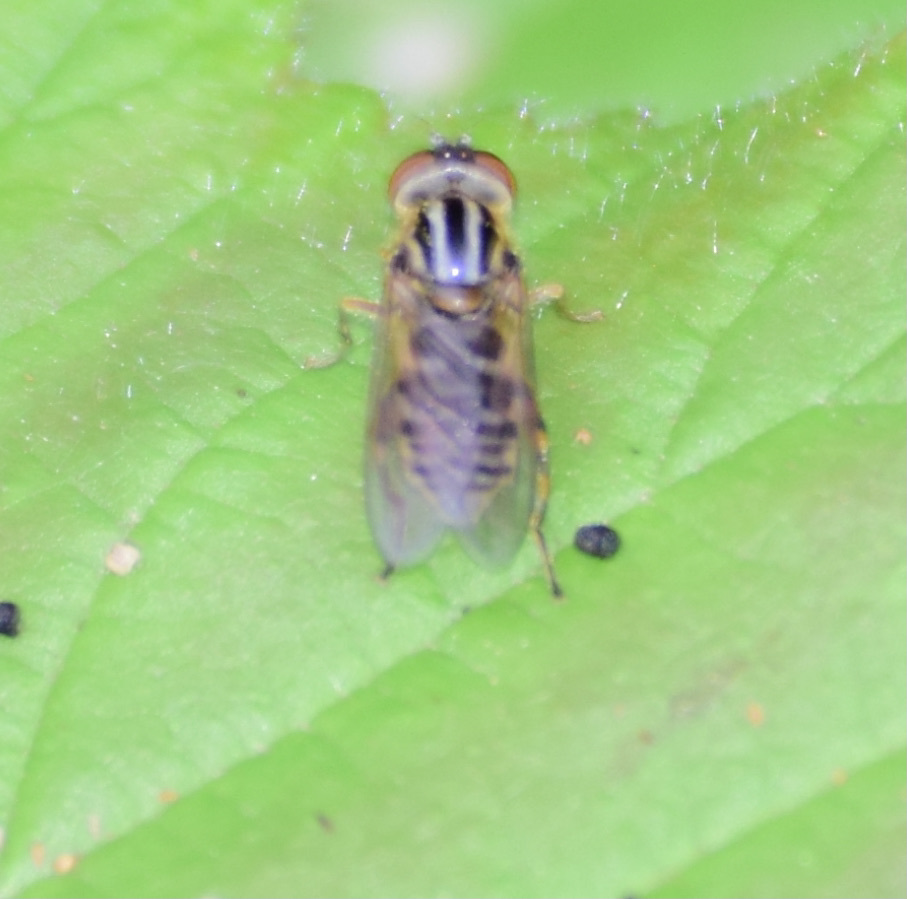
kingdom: Animalia
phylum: Arthropoda
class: Insecta
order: Diptera
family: Syrphidae
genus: Eurimyia
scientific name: Eurimyia stipatus
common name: Long-nosed swamp fly
